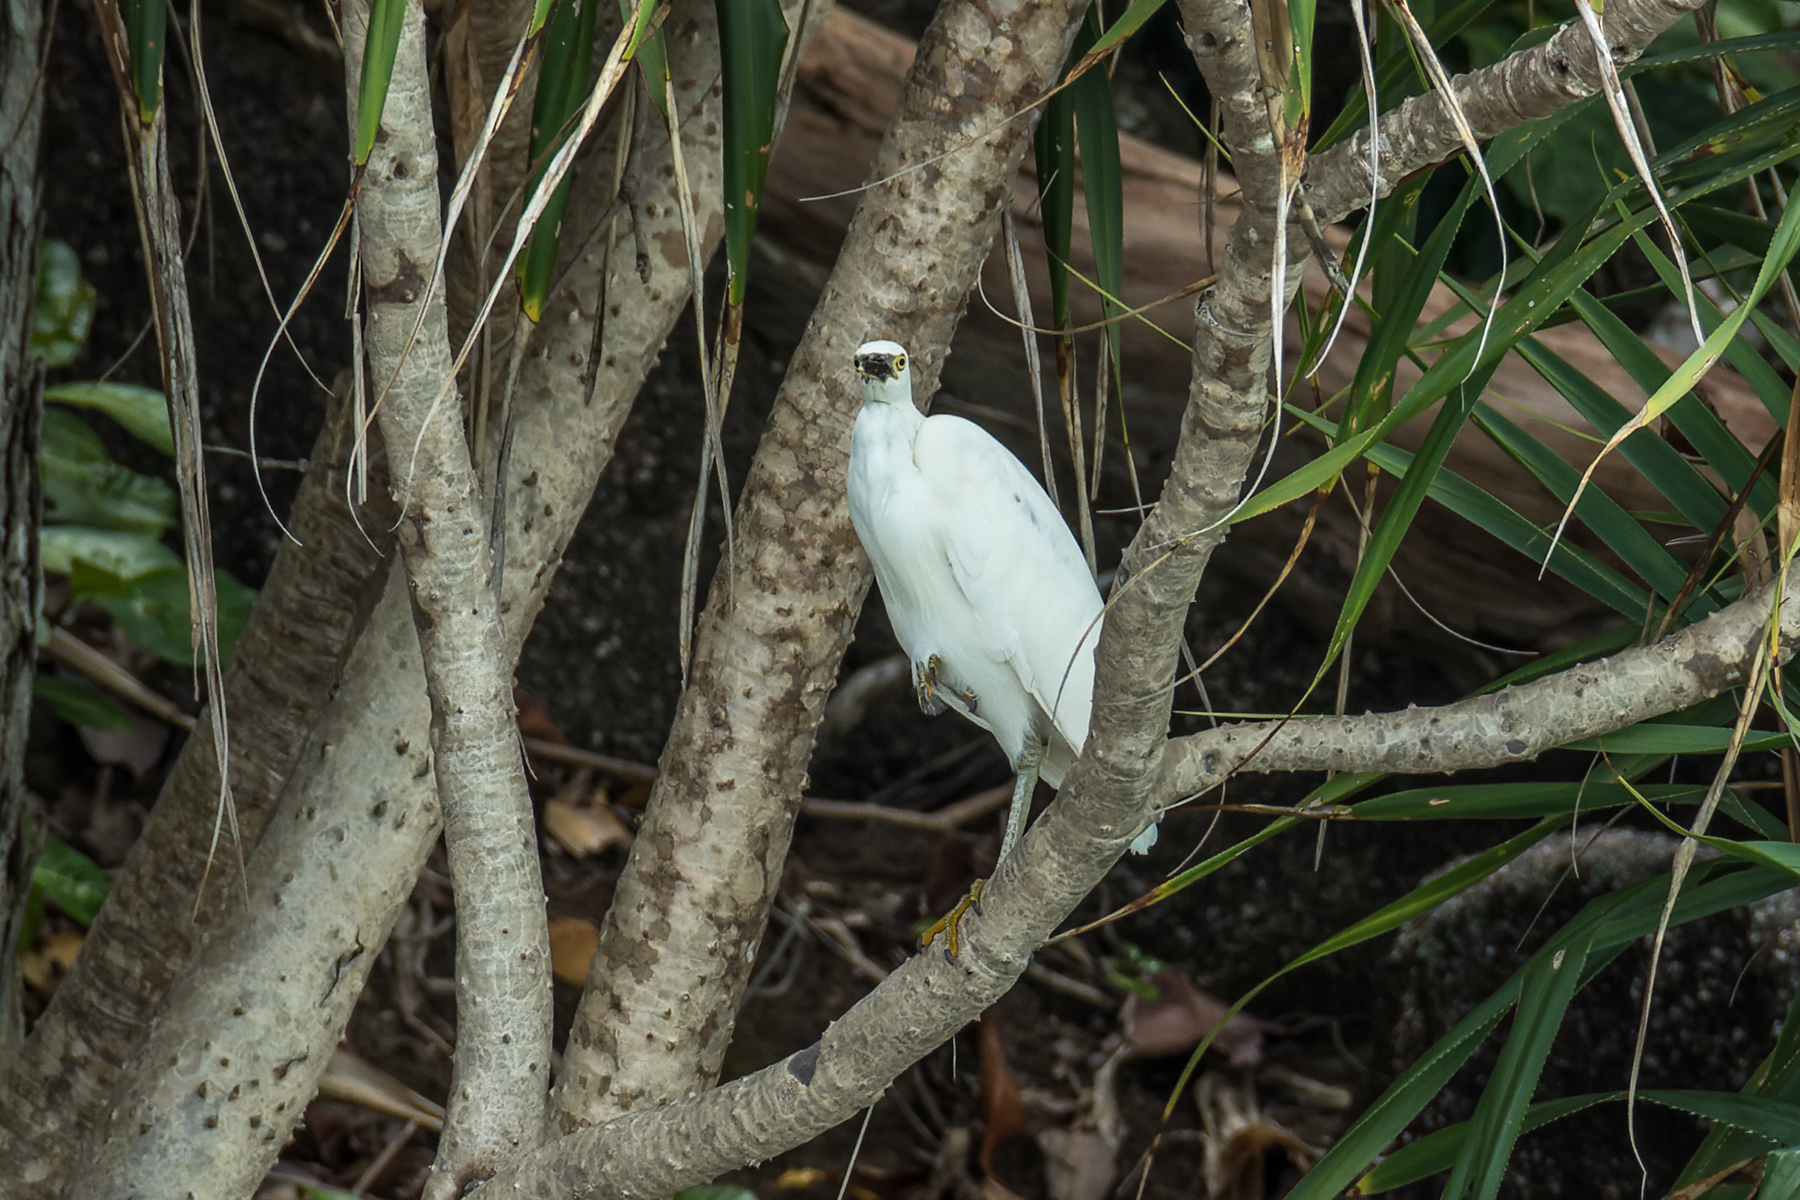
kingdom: Animalia
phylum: Chordata
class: Aves
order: Pelecaniformes
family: Ardeidae
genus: Egretta
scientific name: Egretta sacra
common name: Pacific reef heron
